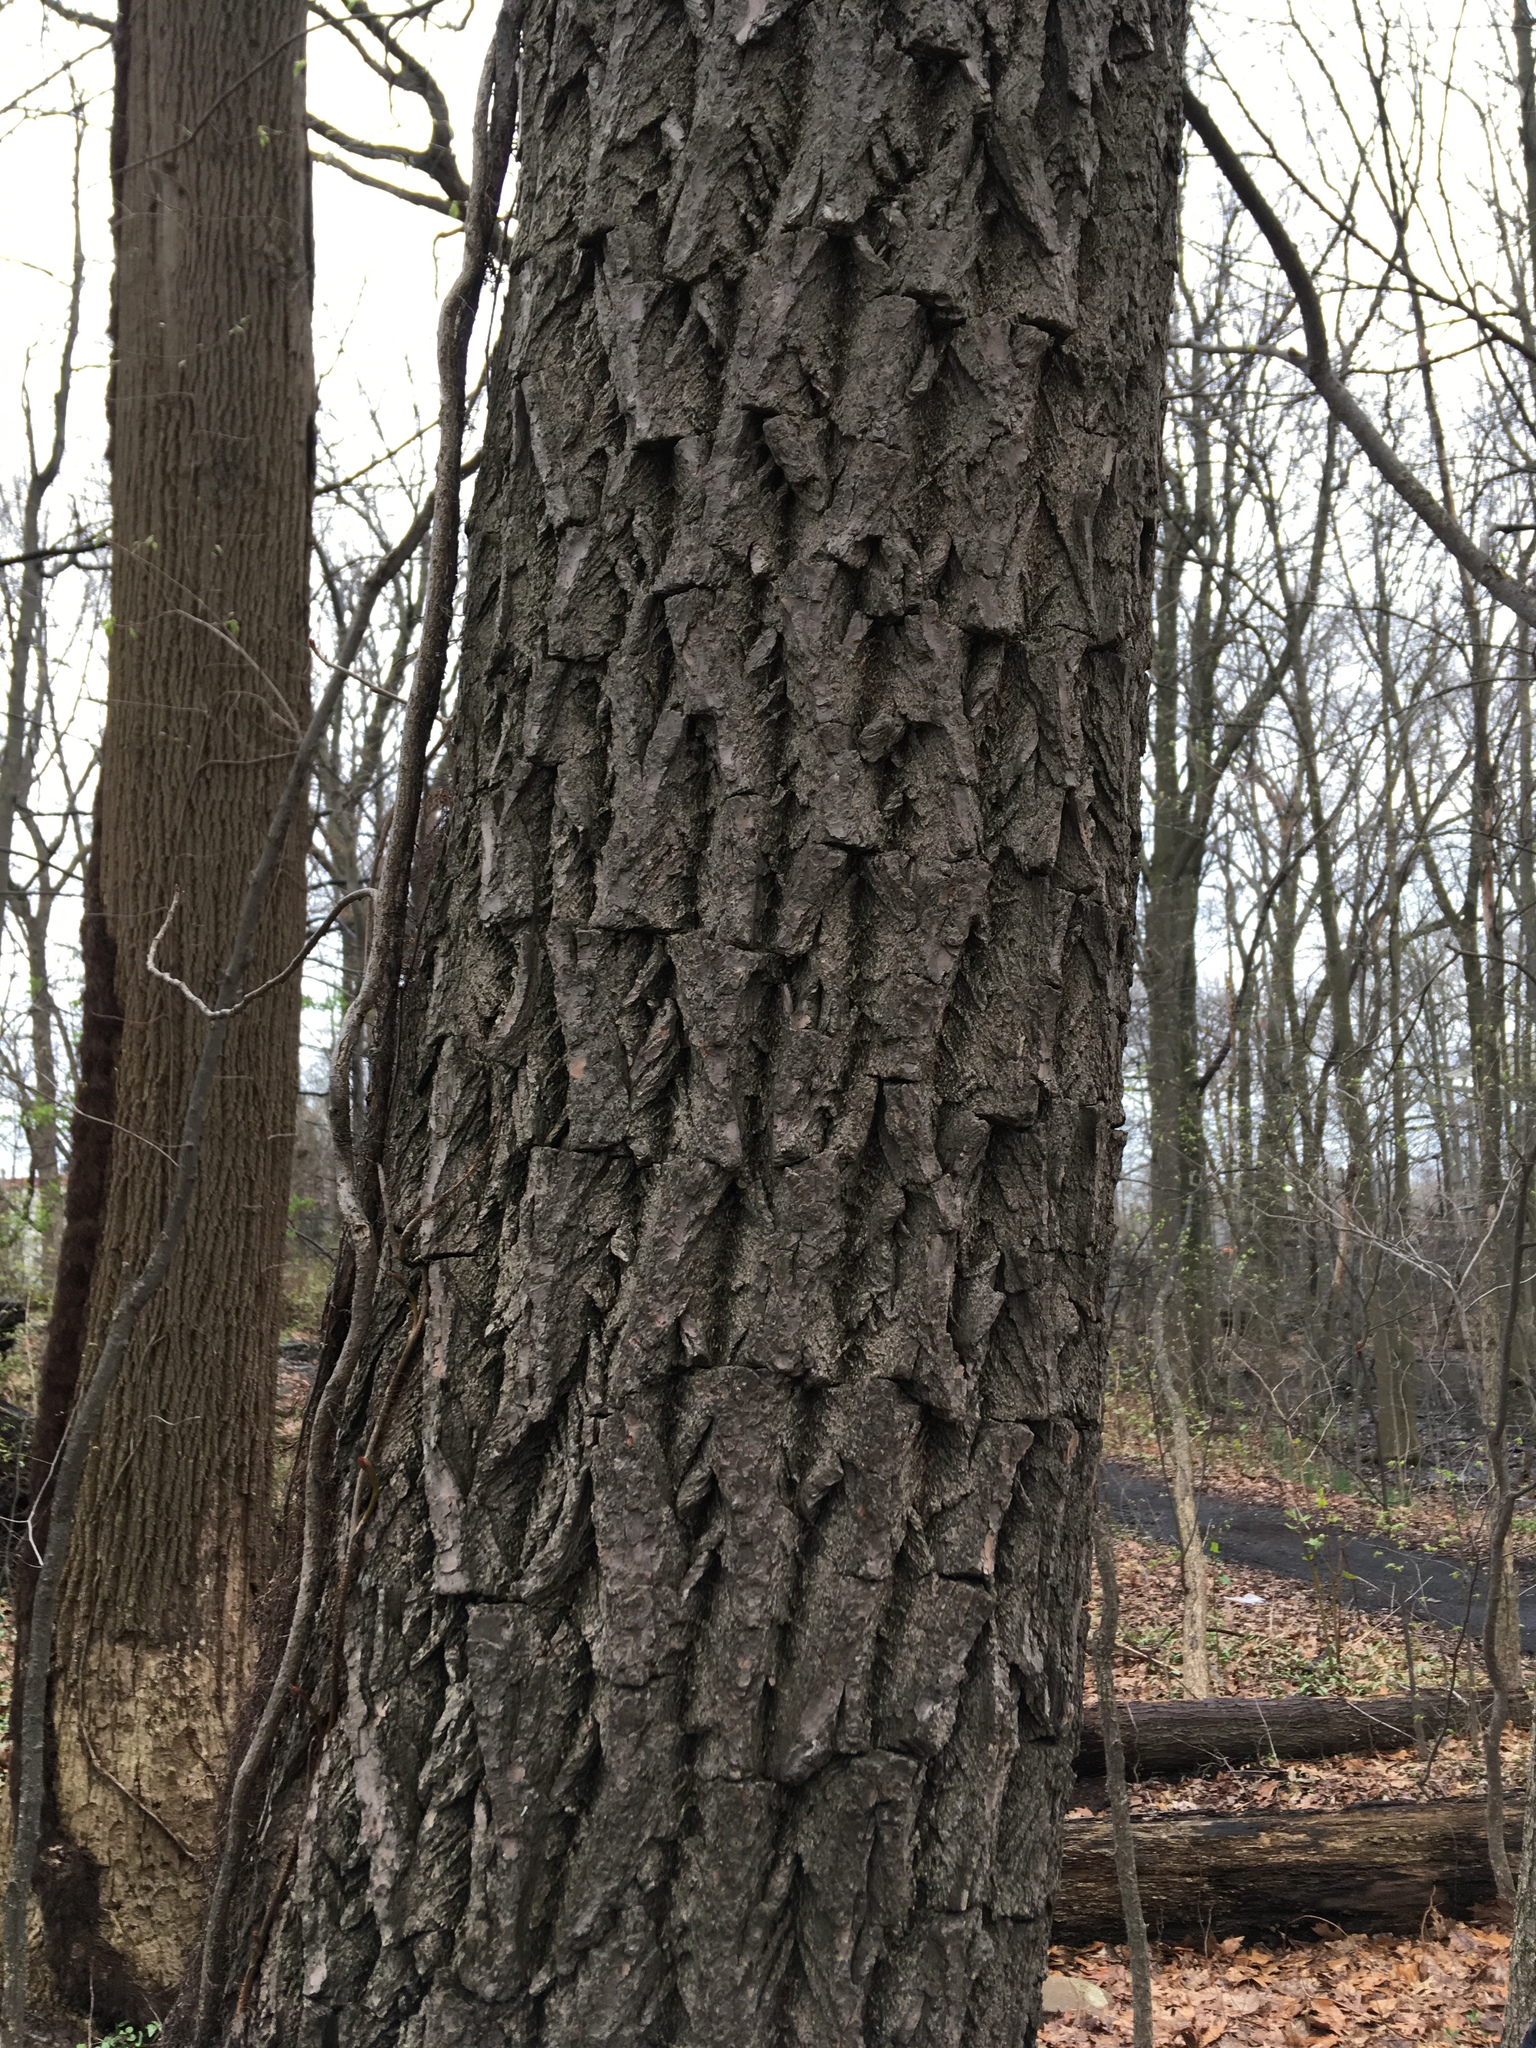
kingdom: Plantae
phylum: Tracheophyta
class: Magnoliopsida
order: Laurales
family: Lauraceae
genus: Sassafras
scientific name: Sassafras albidum
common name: Sassafras
